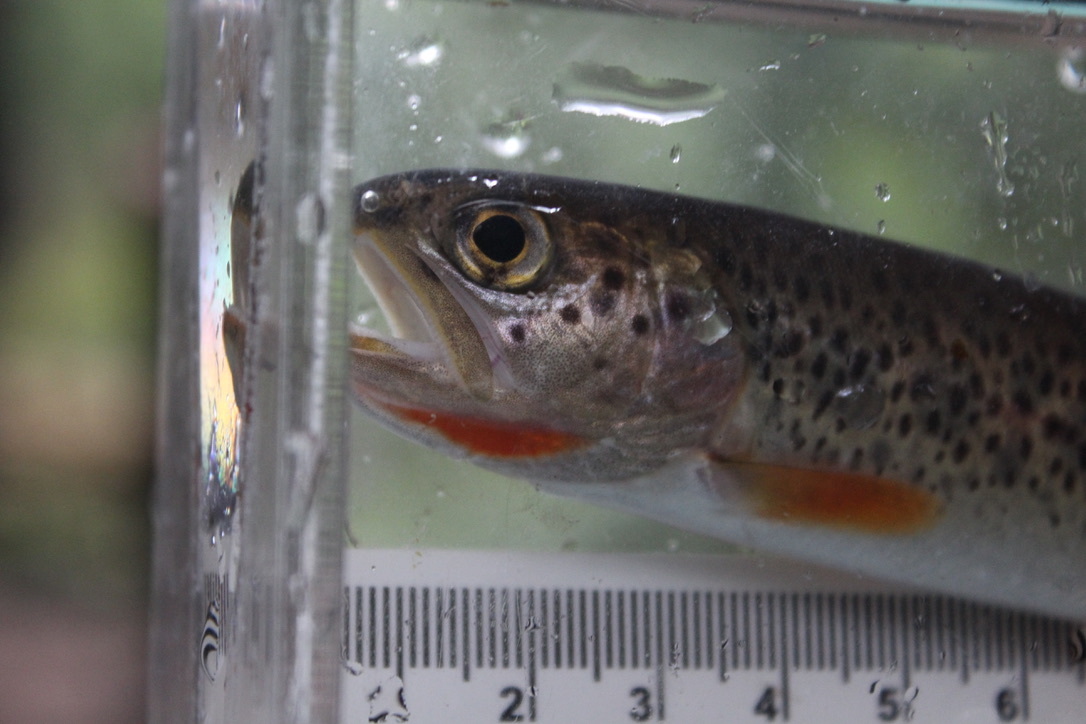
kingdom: Animalia
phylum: Chordata
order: Salmoniformes
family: Salmonidae
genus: Oncorhynchus
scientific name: Oncorhynchus clarkii
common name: Cutthroat trout
